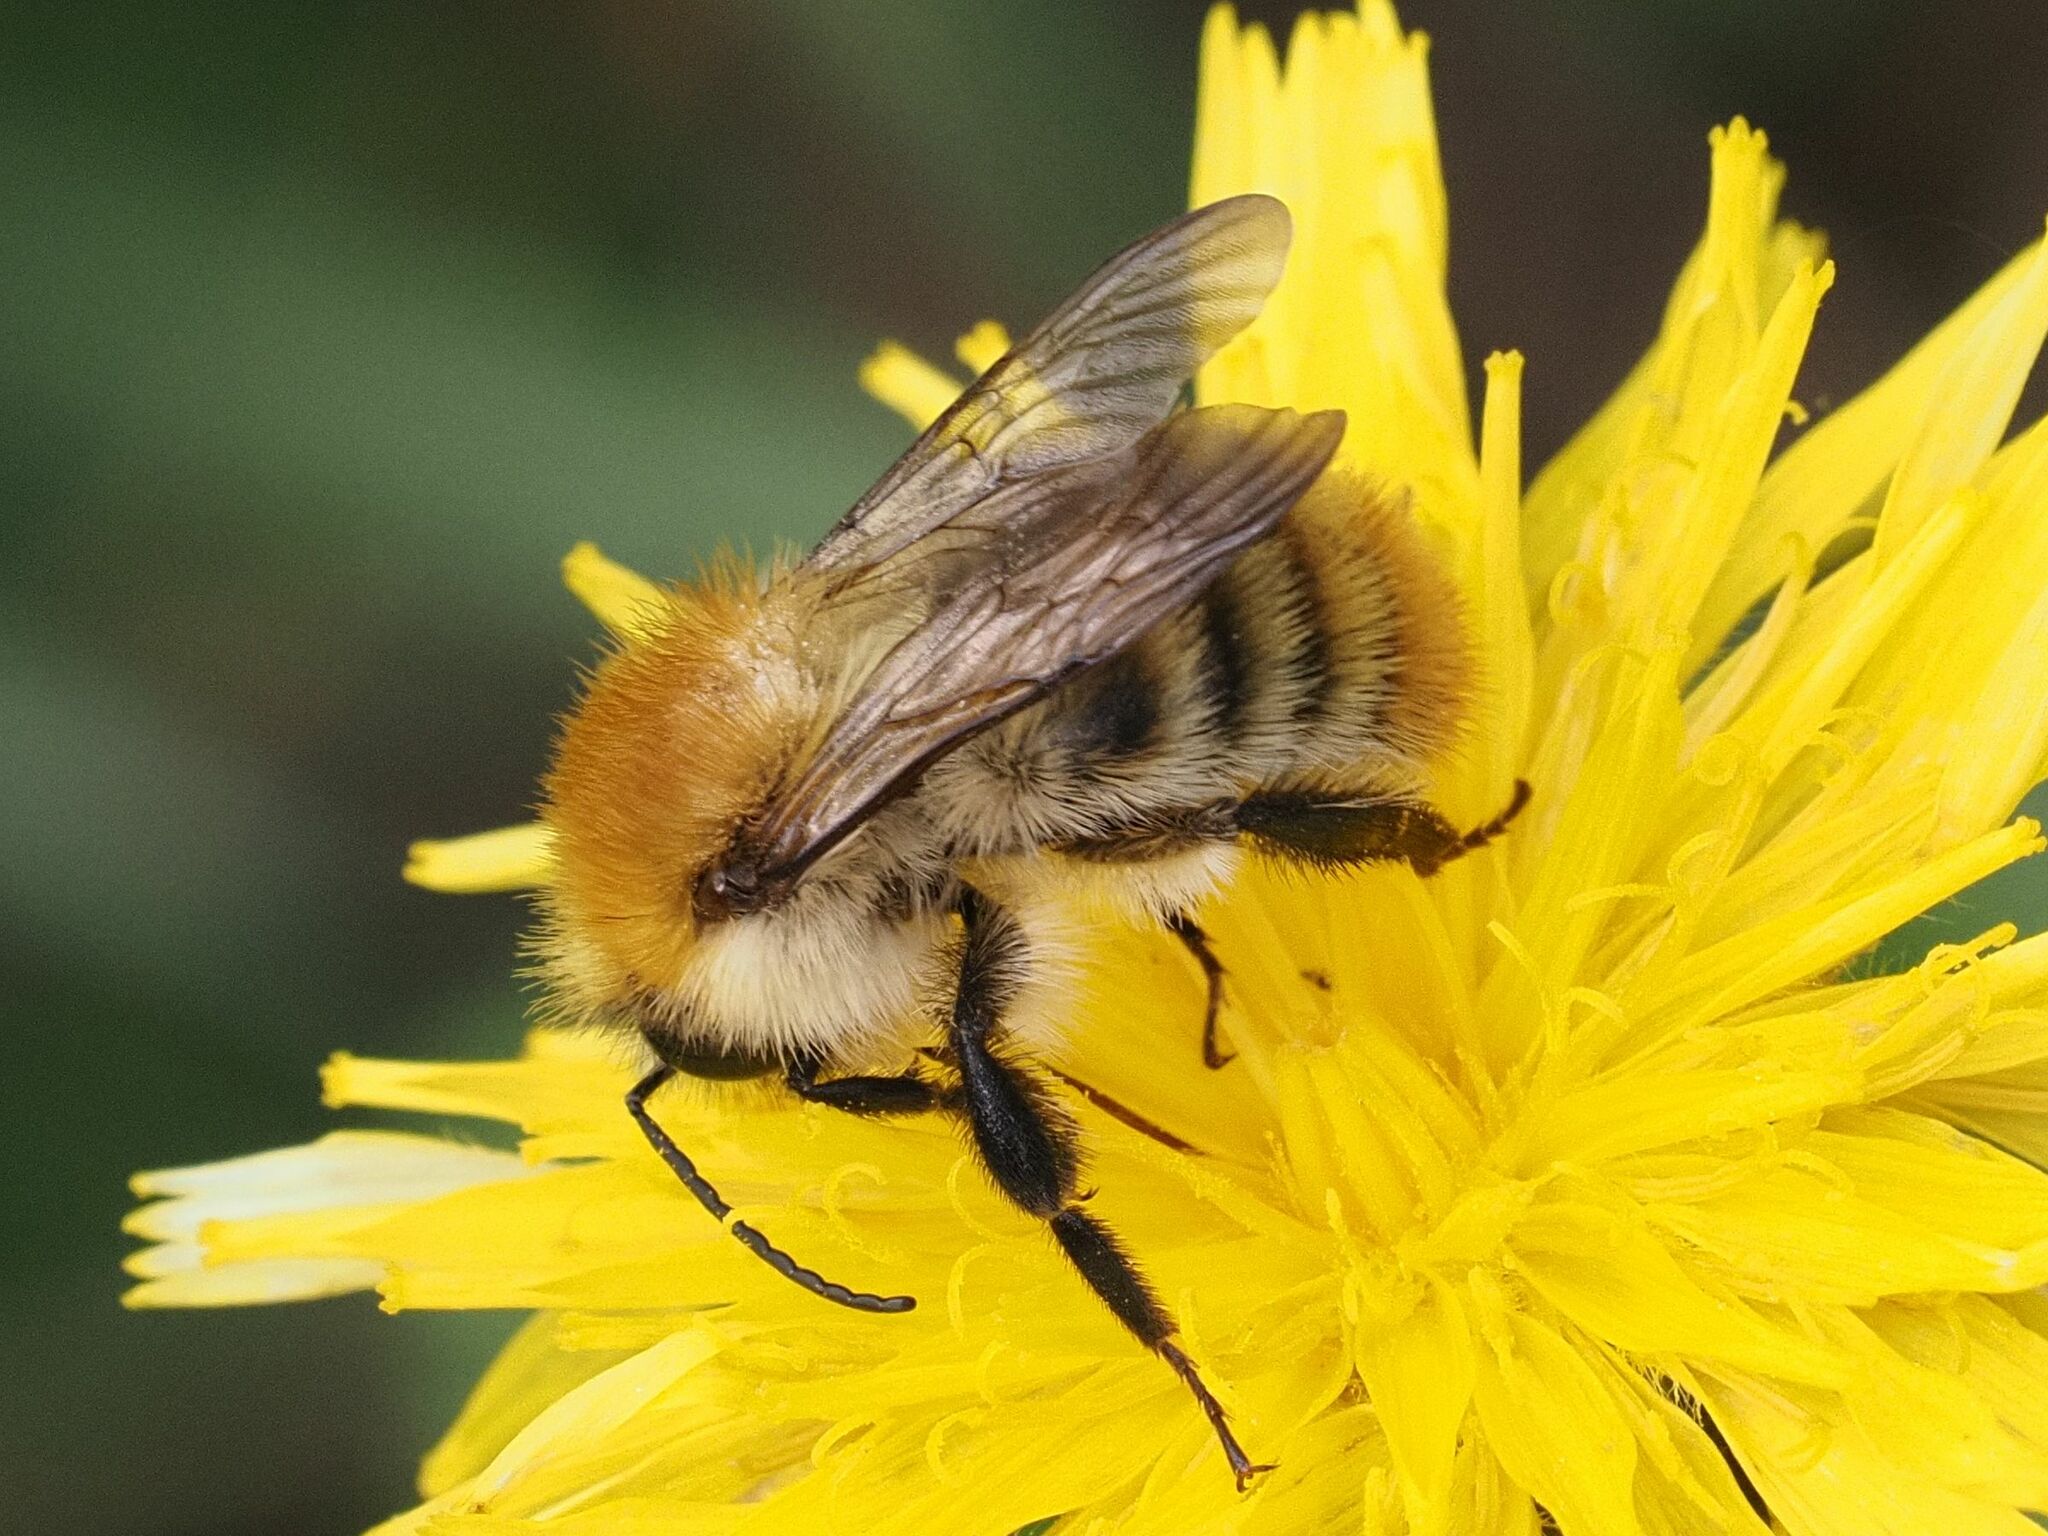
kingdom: Animalia
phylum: Arthropoda
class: Insecta
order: Hymenoptera
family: Apidae
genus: Bombus
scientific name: Bombus pascuorum
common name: Common carder bee
